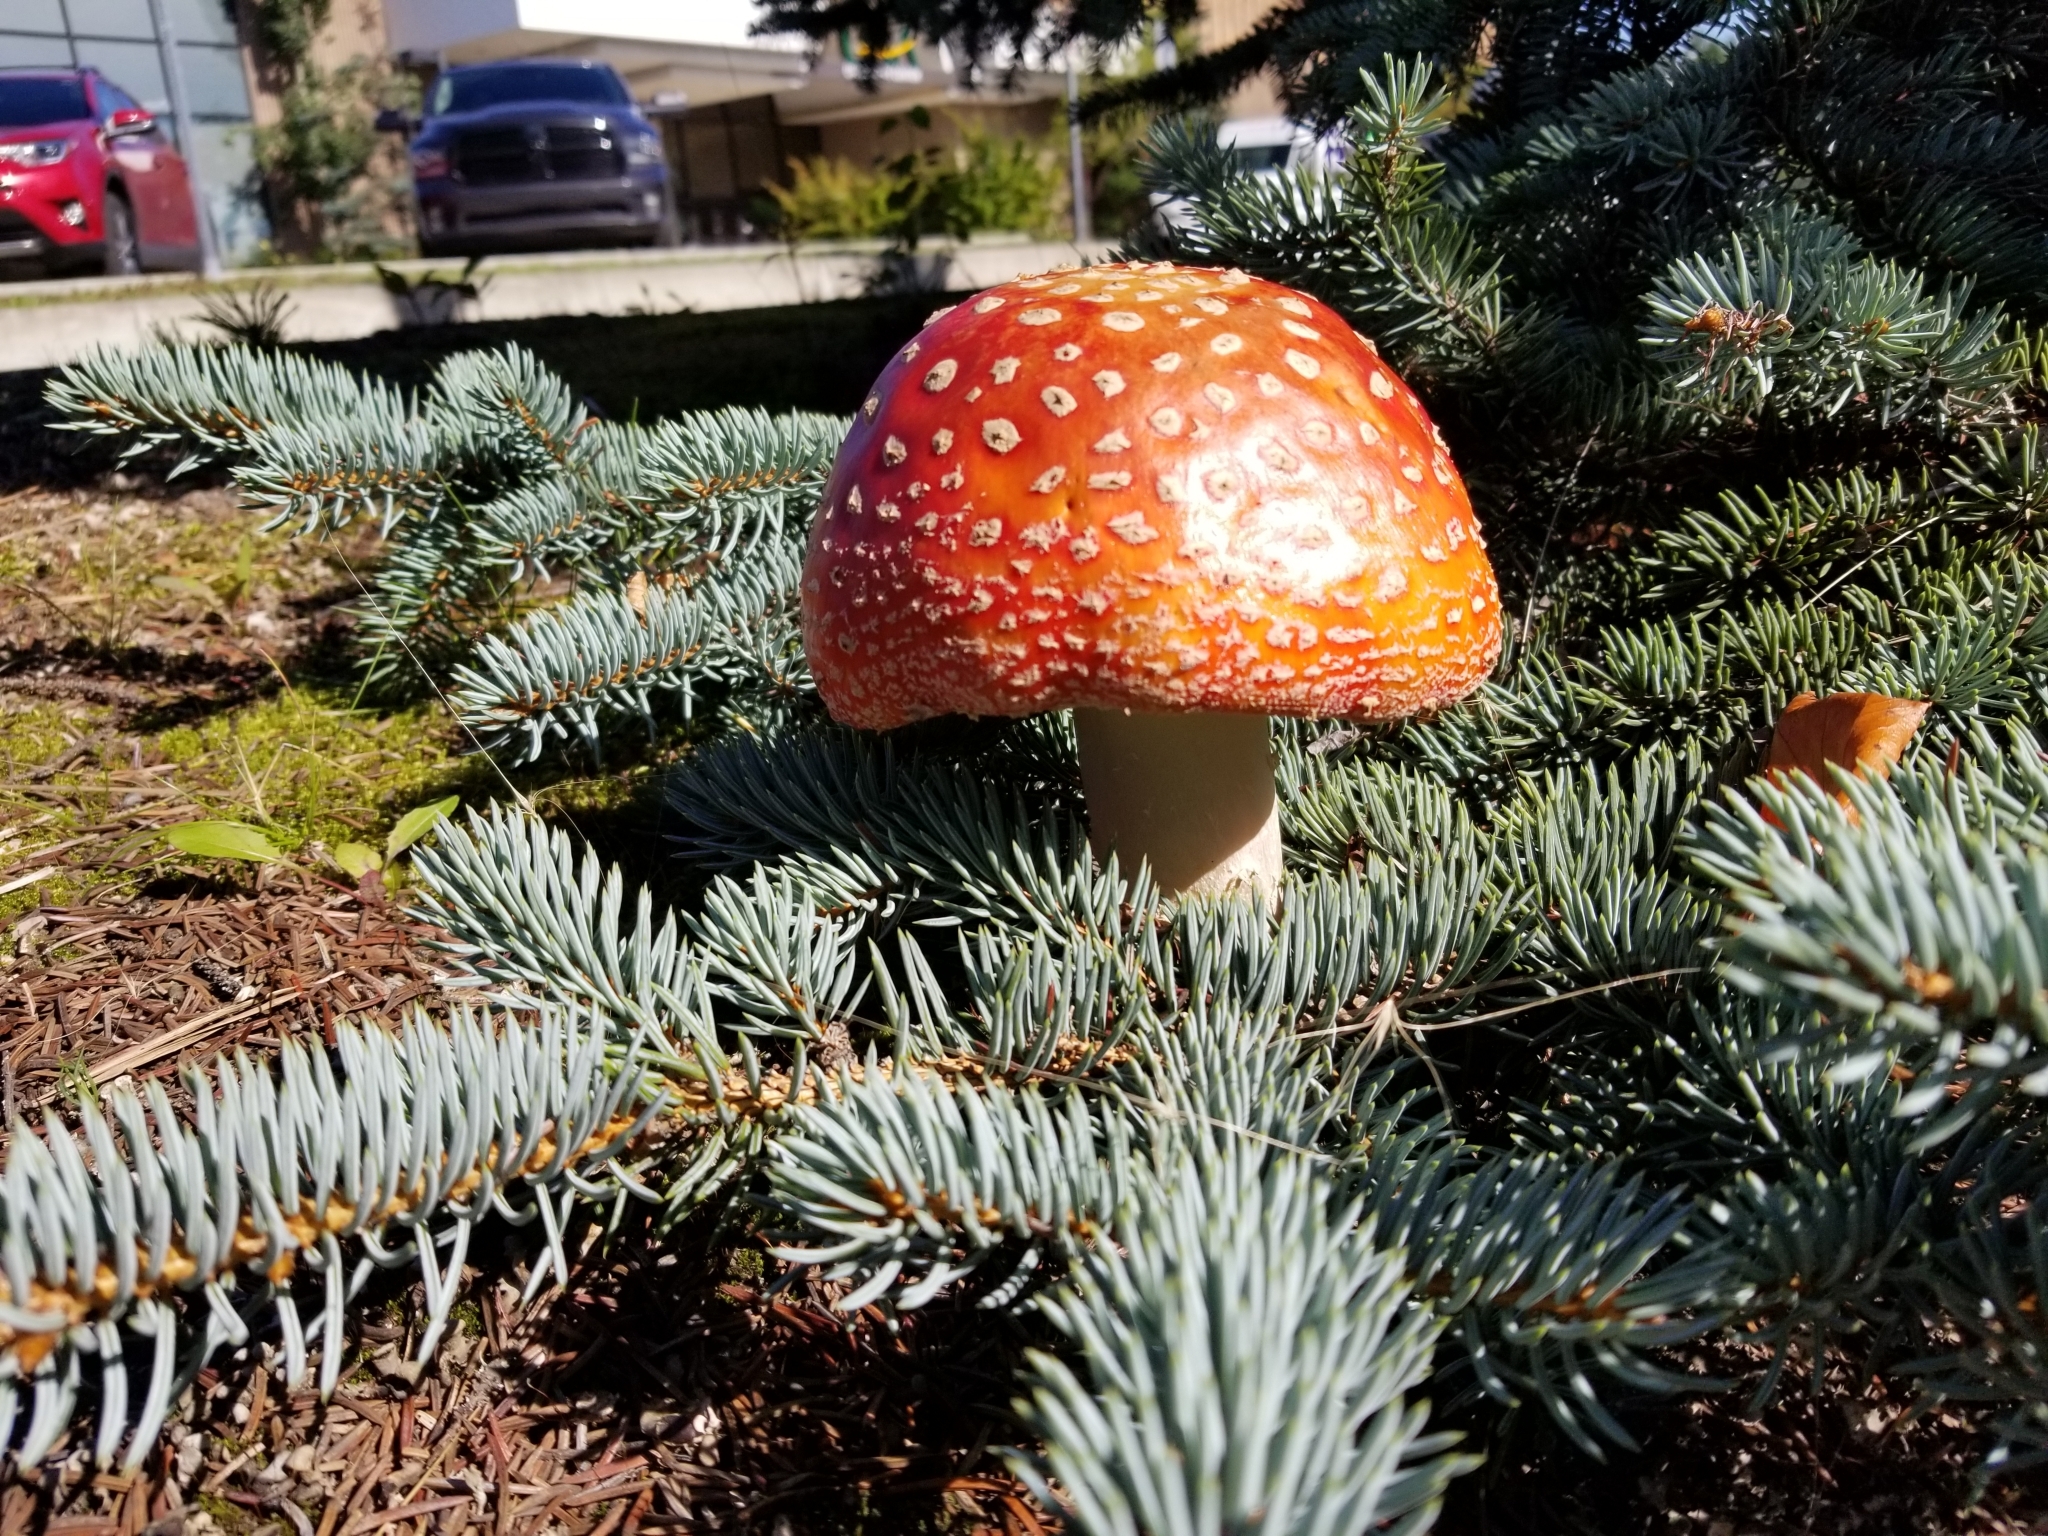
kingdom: Fungi
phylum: Basidiomycota
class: Agaricomycetes
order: Agaricales
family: Amanitaceae
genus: Amanita
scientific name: Amanita muscaria
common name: Fly agaric
